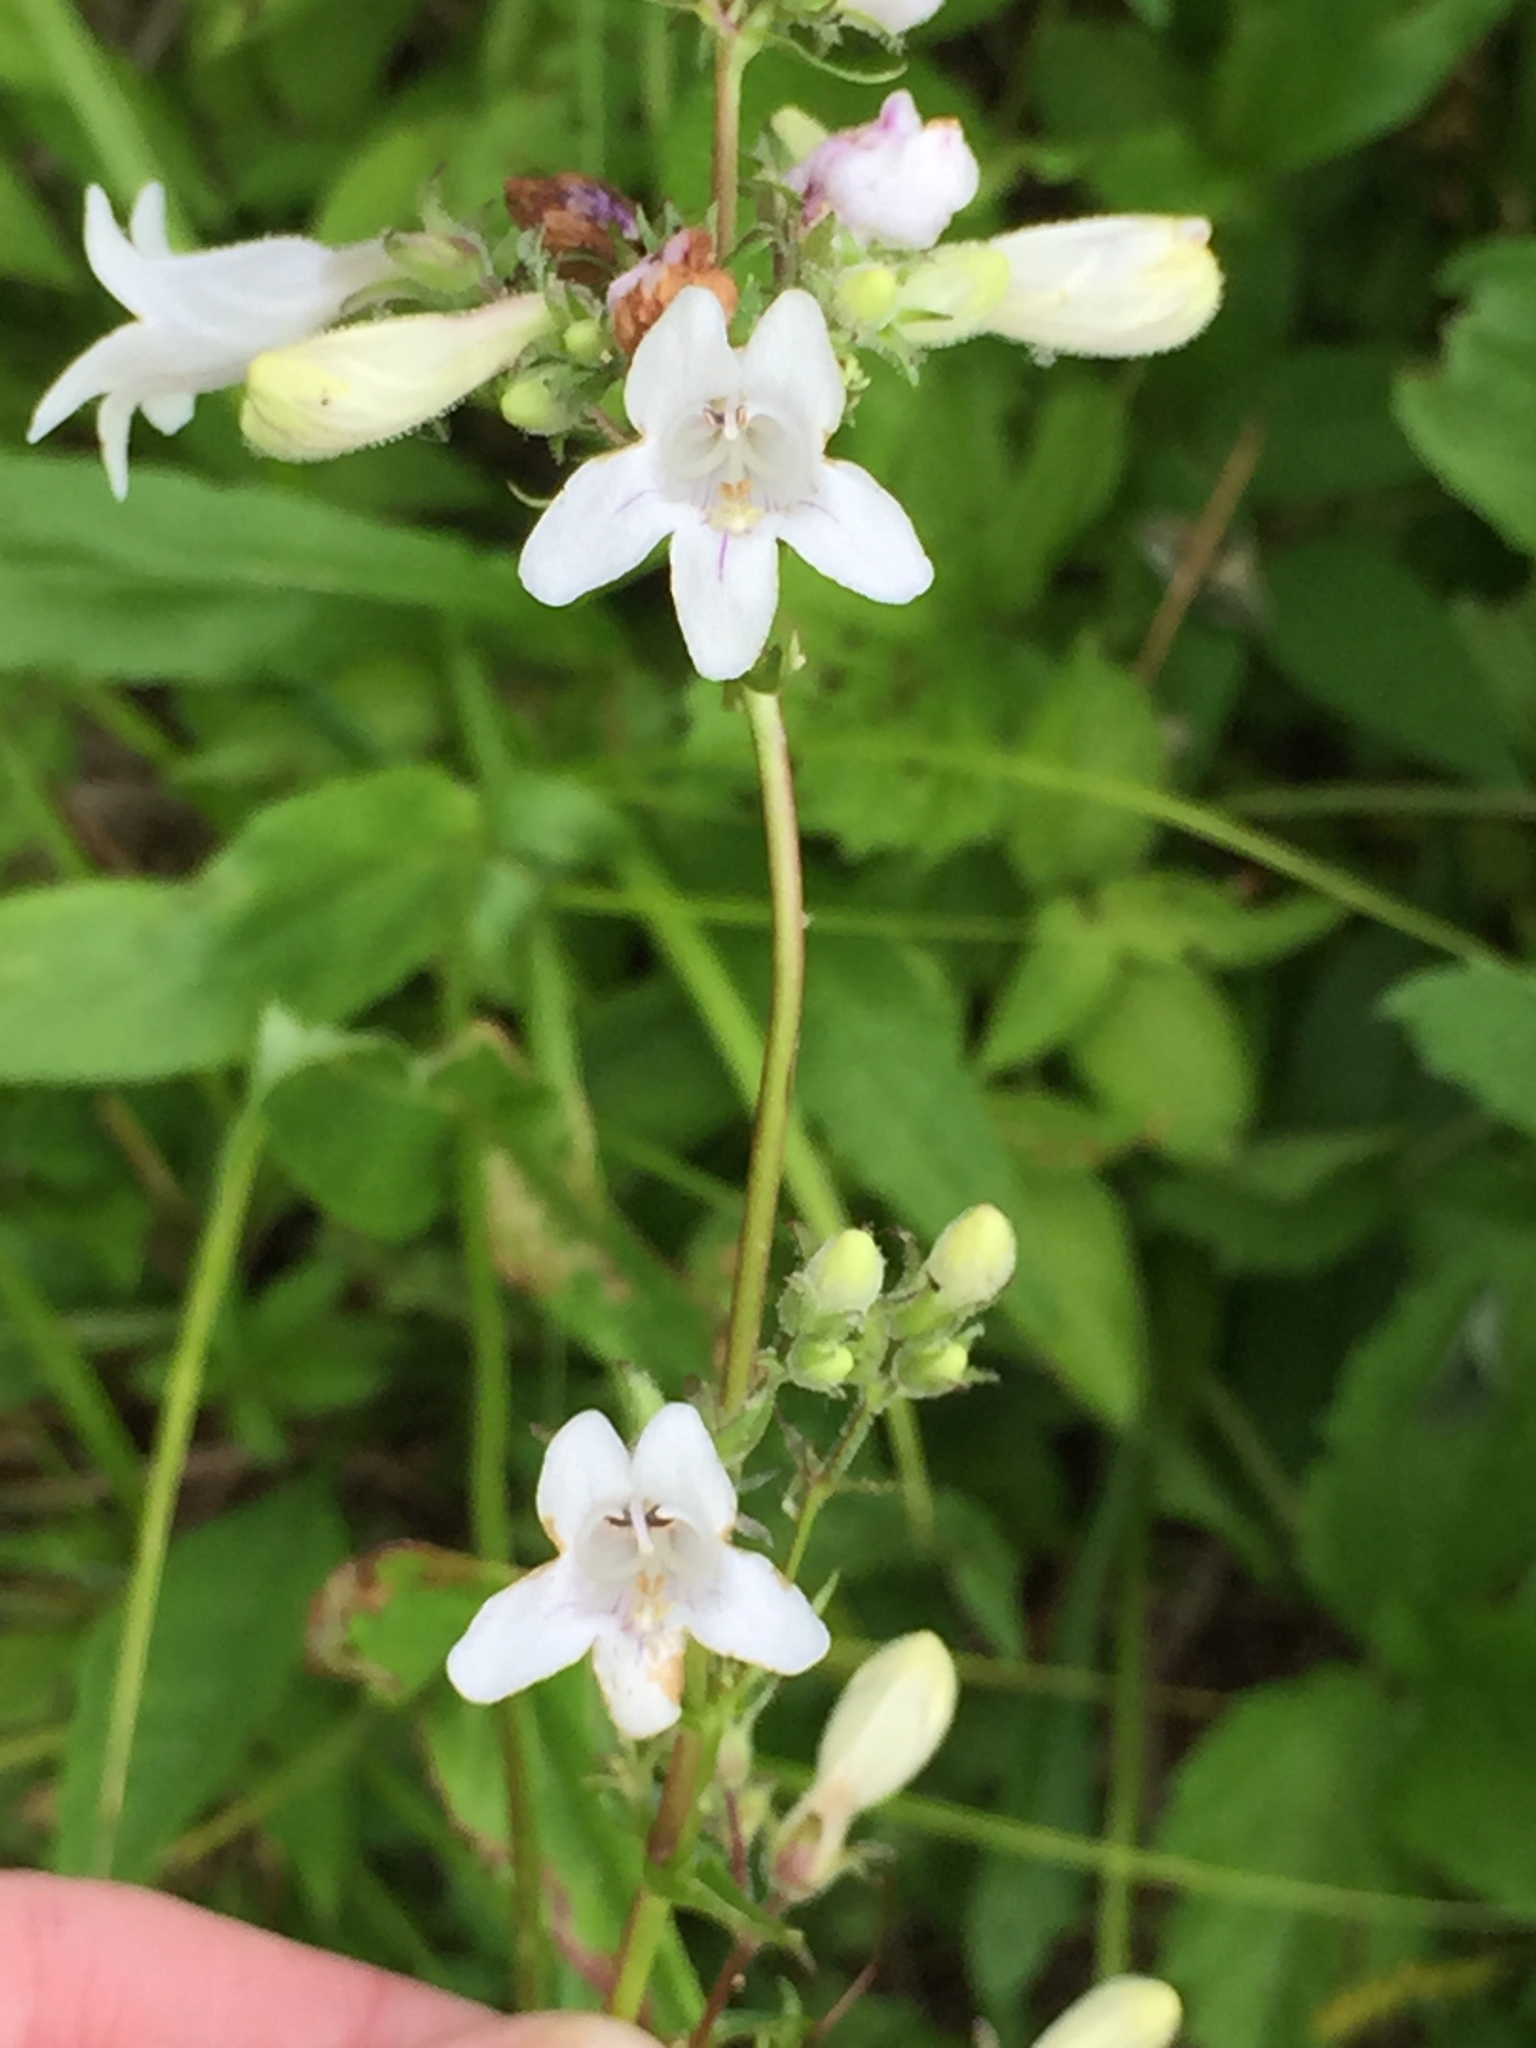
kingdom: Plantae
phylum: Tracheophyta
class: Magnoliopsida
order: Lamiales
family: Plantaginaceae
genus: Penstemon
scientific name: Penstemon digitalis
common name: Foxglove beardtongue
